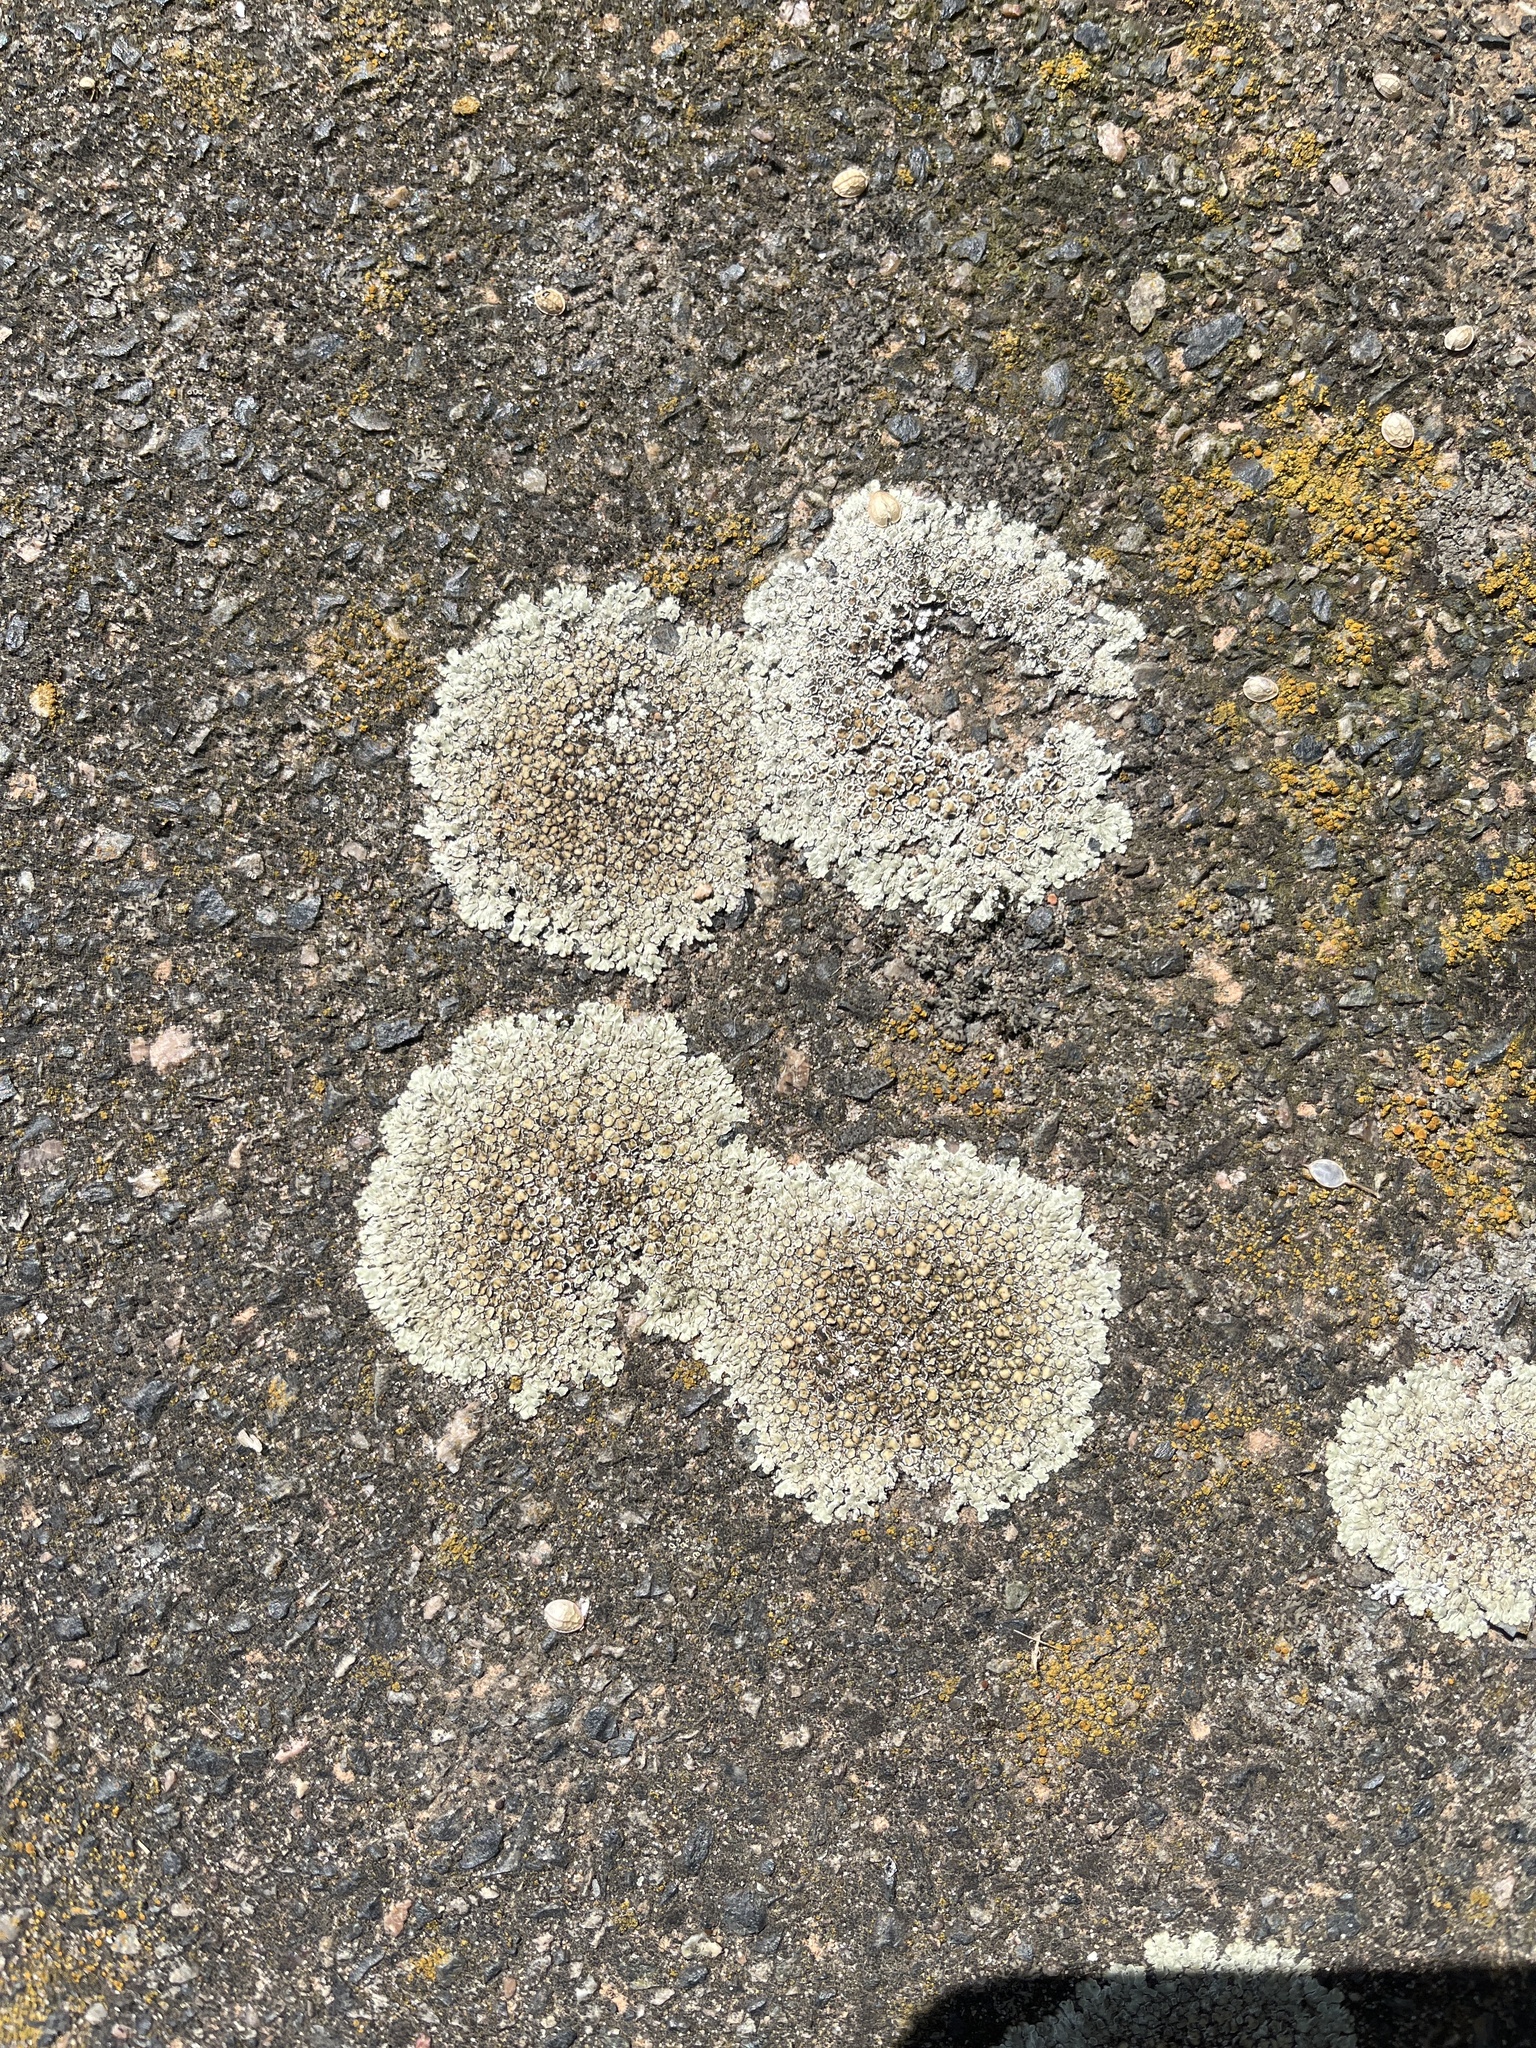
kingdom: Fungi
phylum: Ascomycota
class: Lecanoromycetes
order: Lecanorales
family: Lecanoraceae
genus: Protoparmeliopsis
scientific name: Protoparmeliopsis muralis
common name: Stonewall rim lichen
